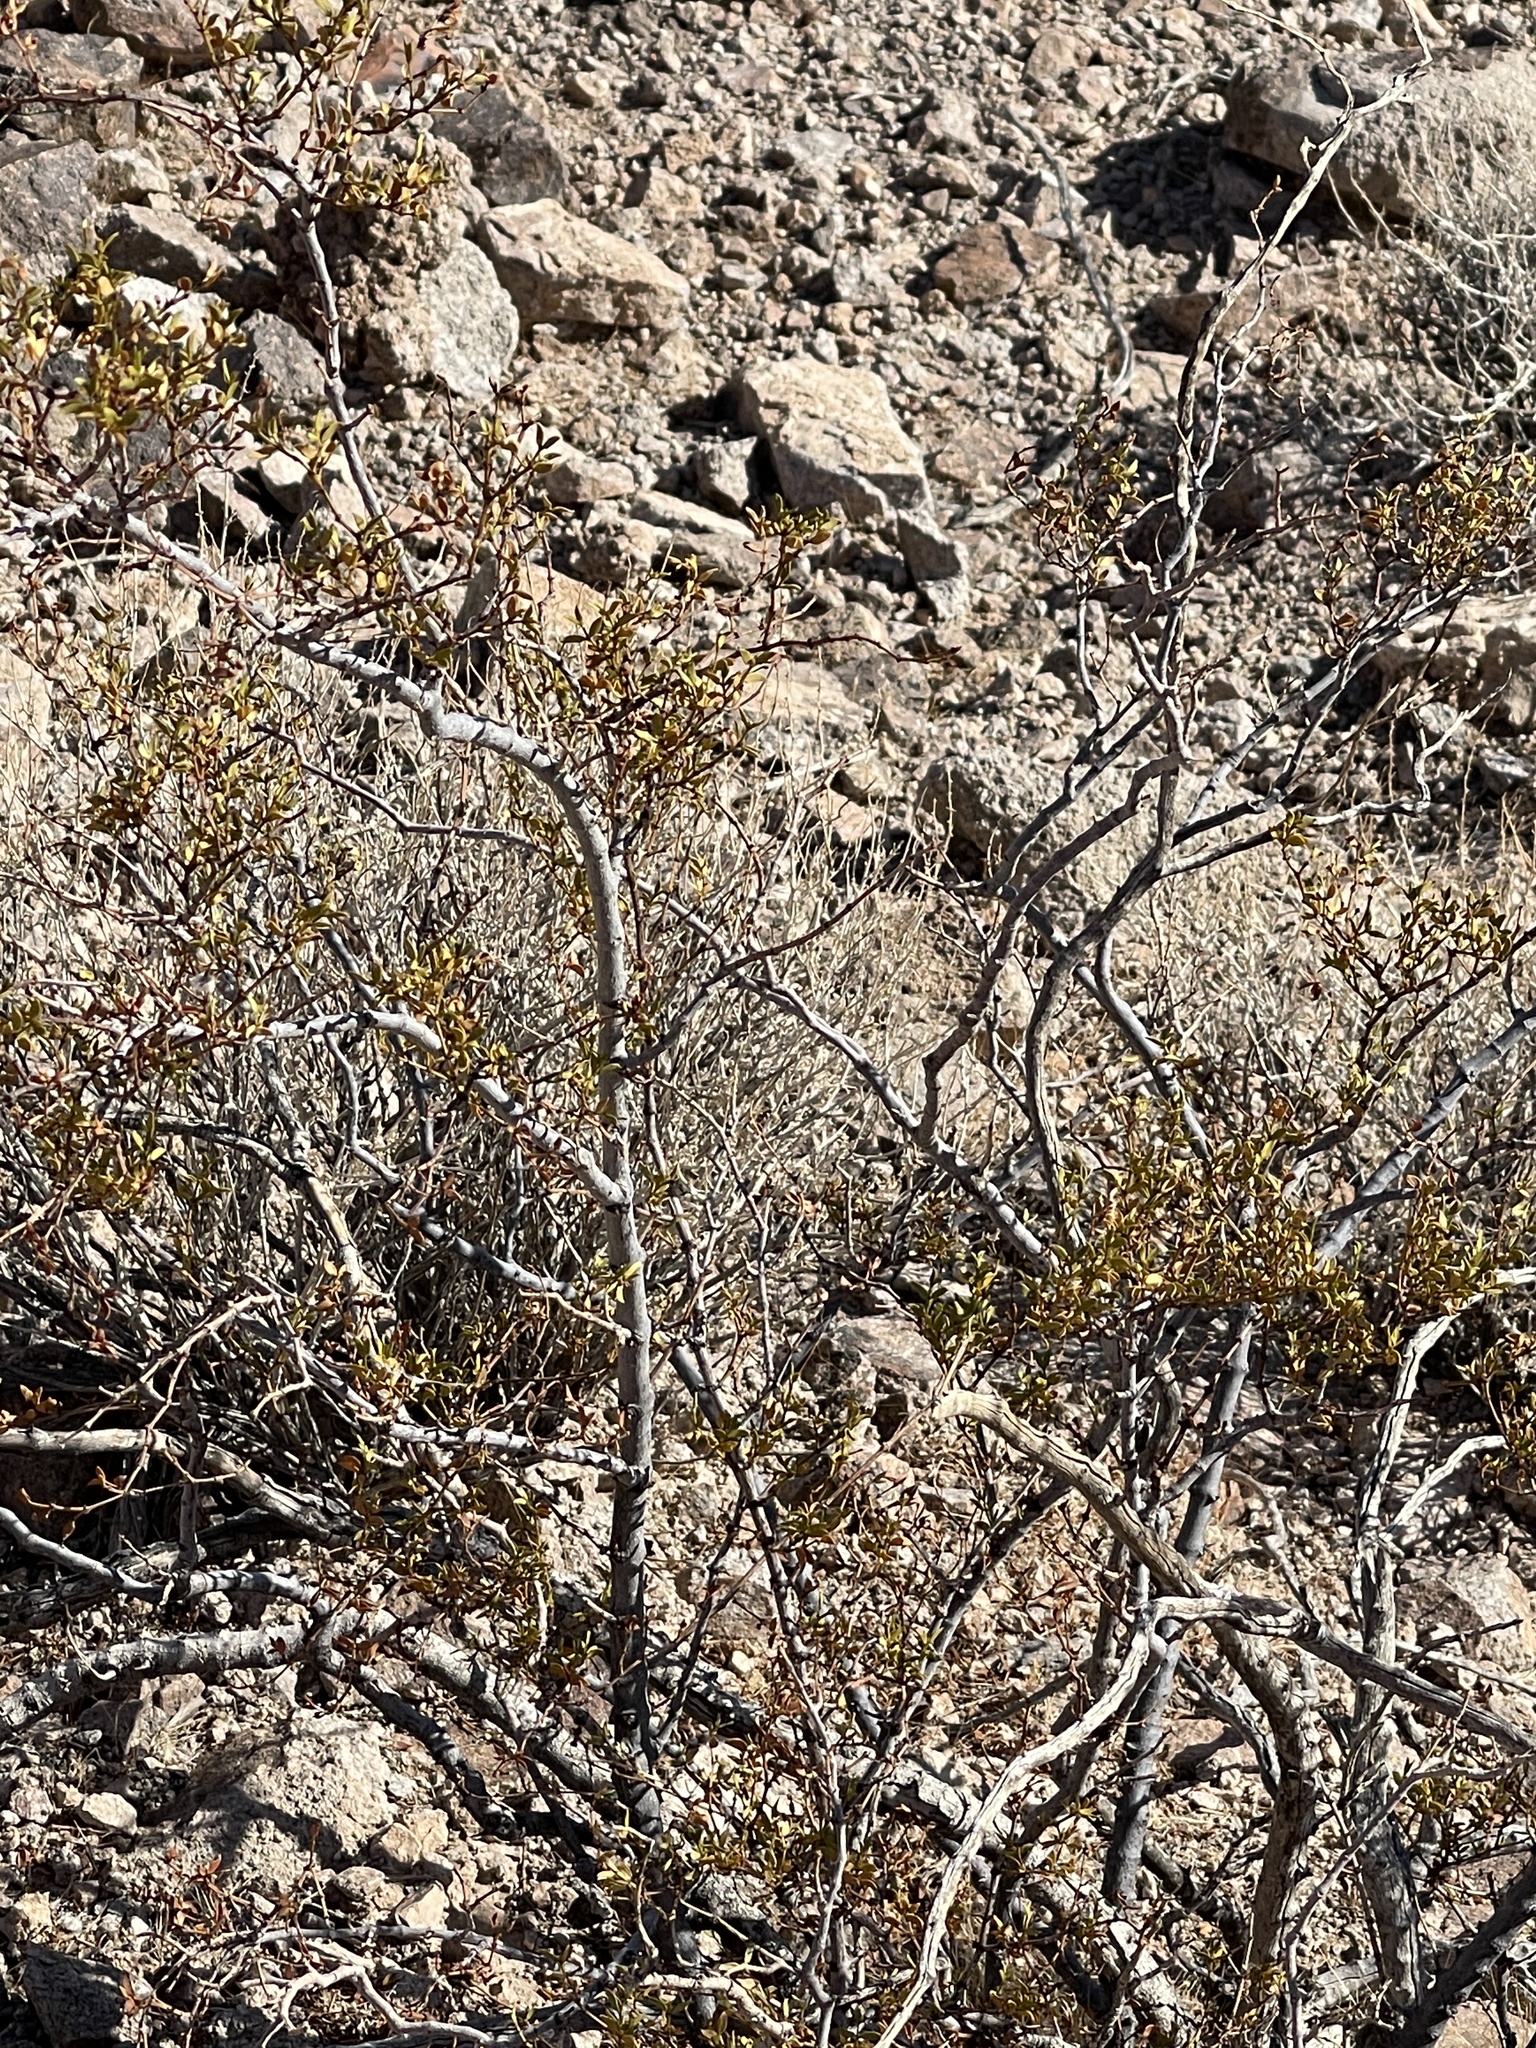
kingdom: Plantae
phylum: Tracheophyta
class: Magnoliopsida
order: Zygophyllales
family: Zygophyllaceae
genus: Larrea
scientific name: Larrea tridentata
